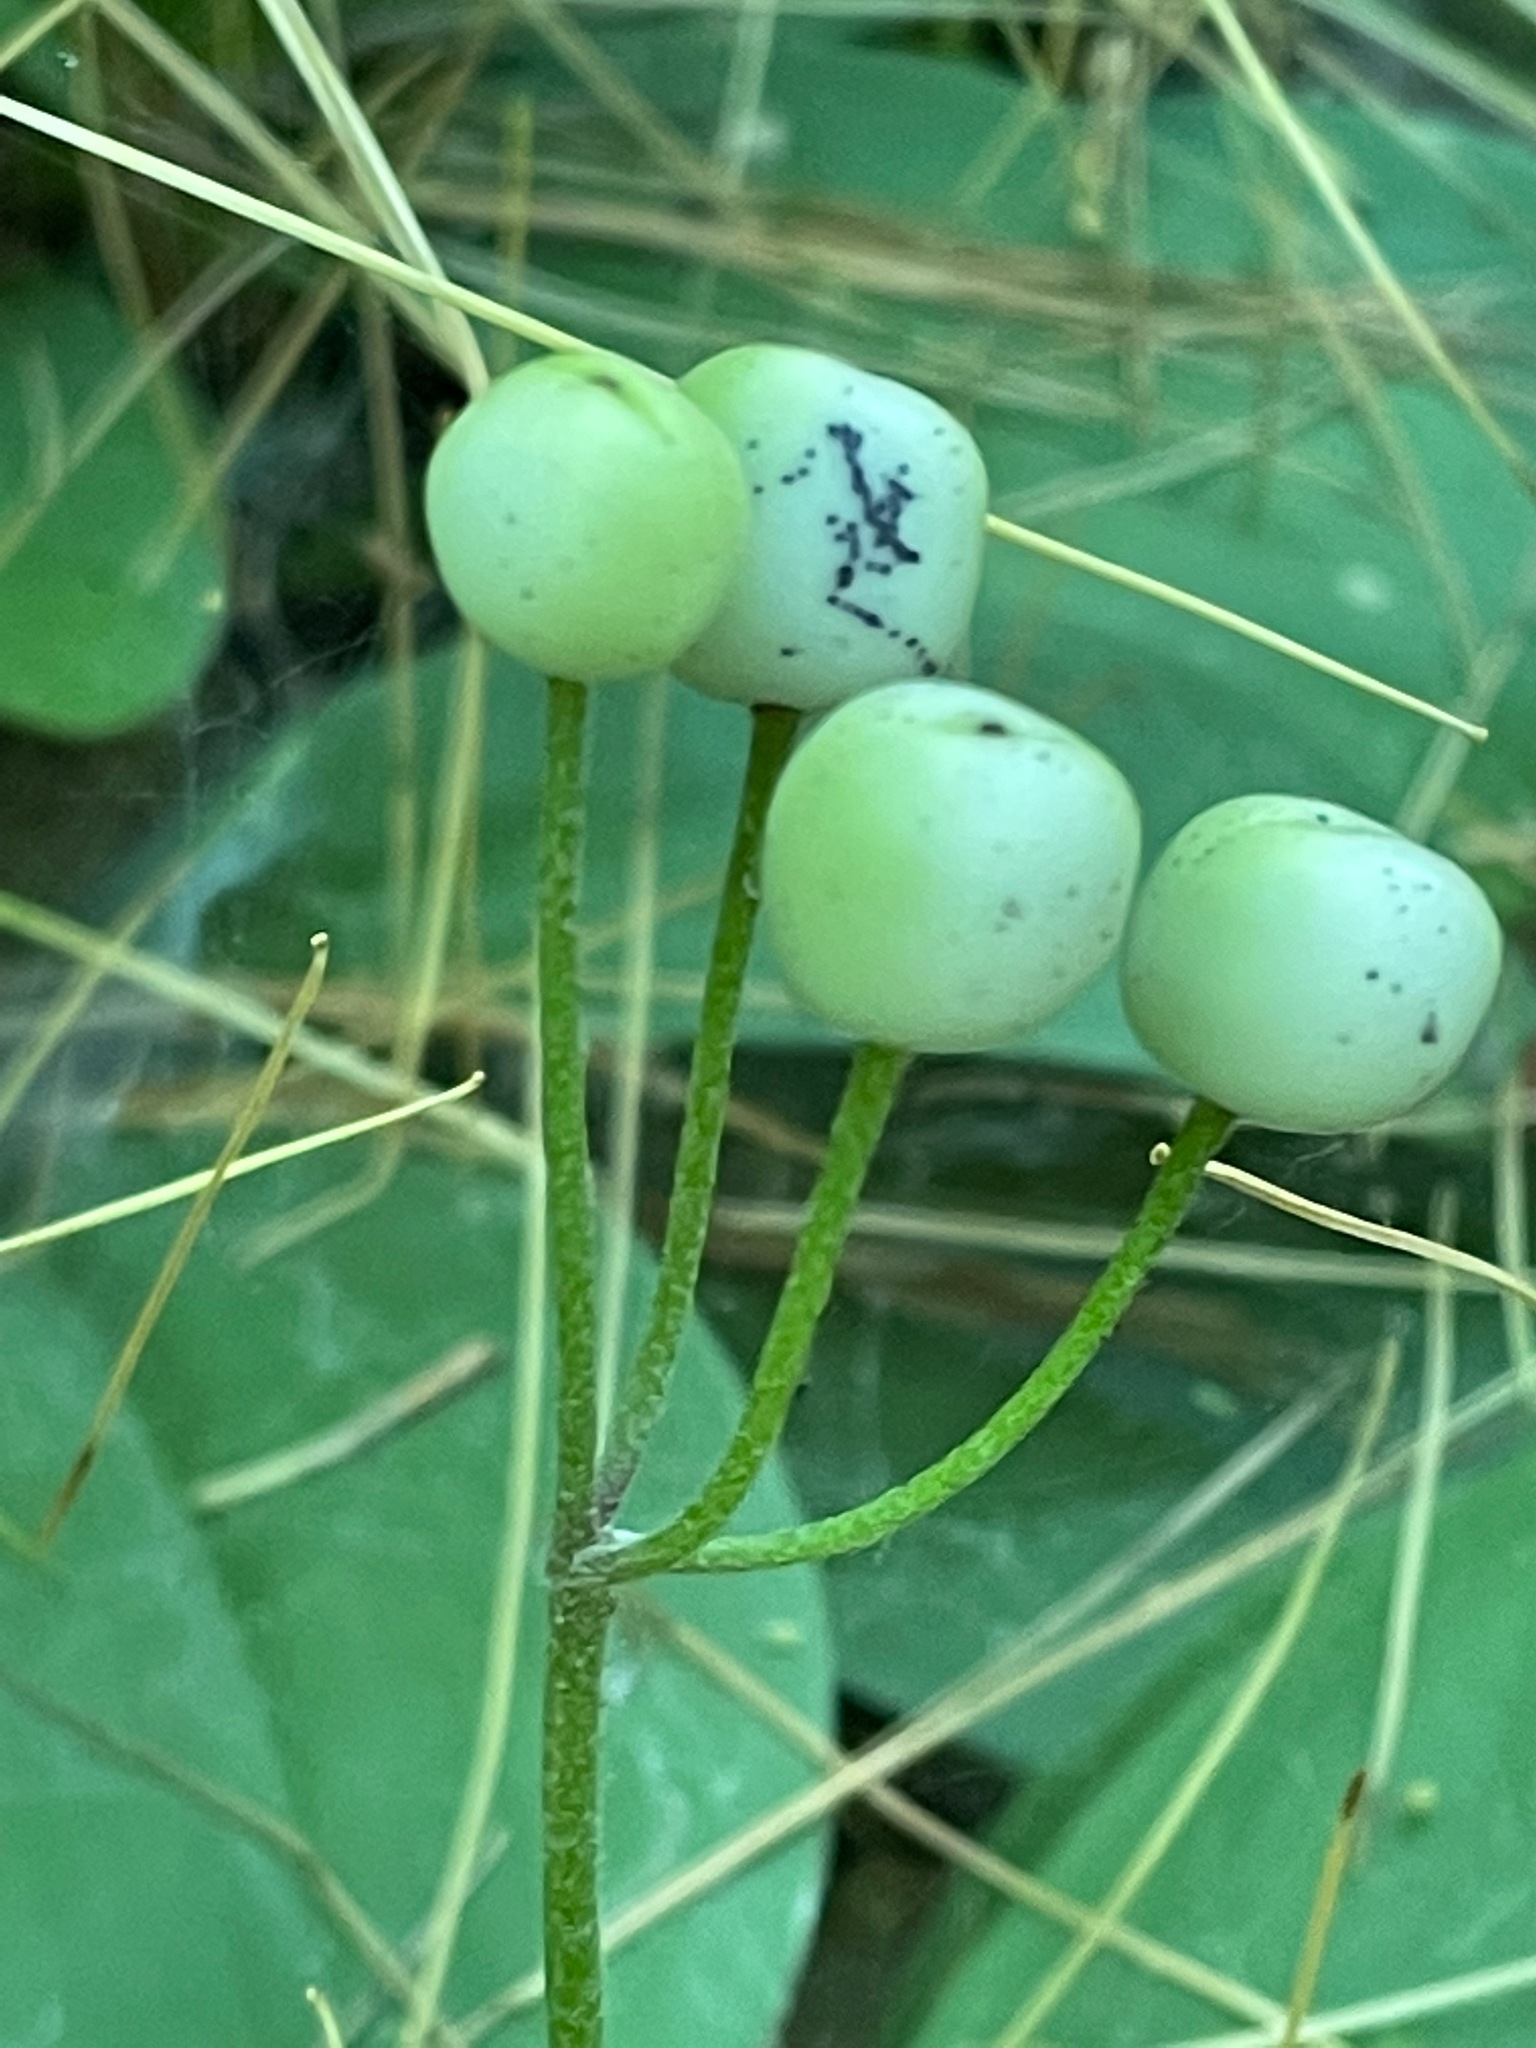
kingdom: Plantae
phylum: Tracheophyta
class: Liliopsida
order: Liliales
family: Liliaceae
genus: Clintonia
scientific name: Clintonia borealis
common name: Yellow clintonia
